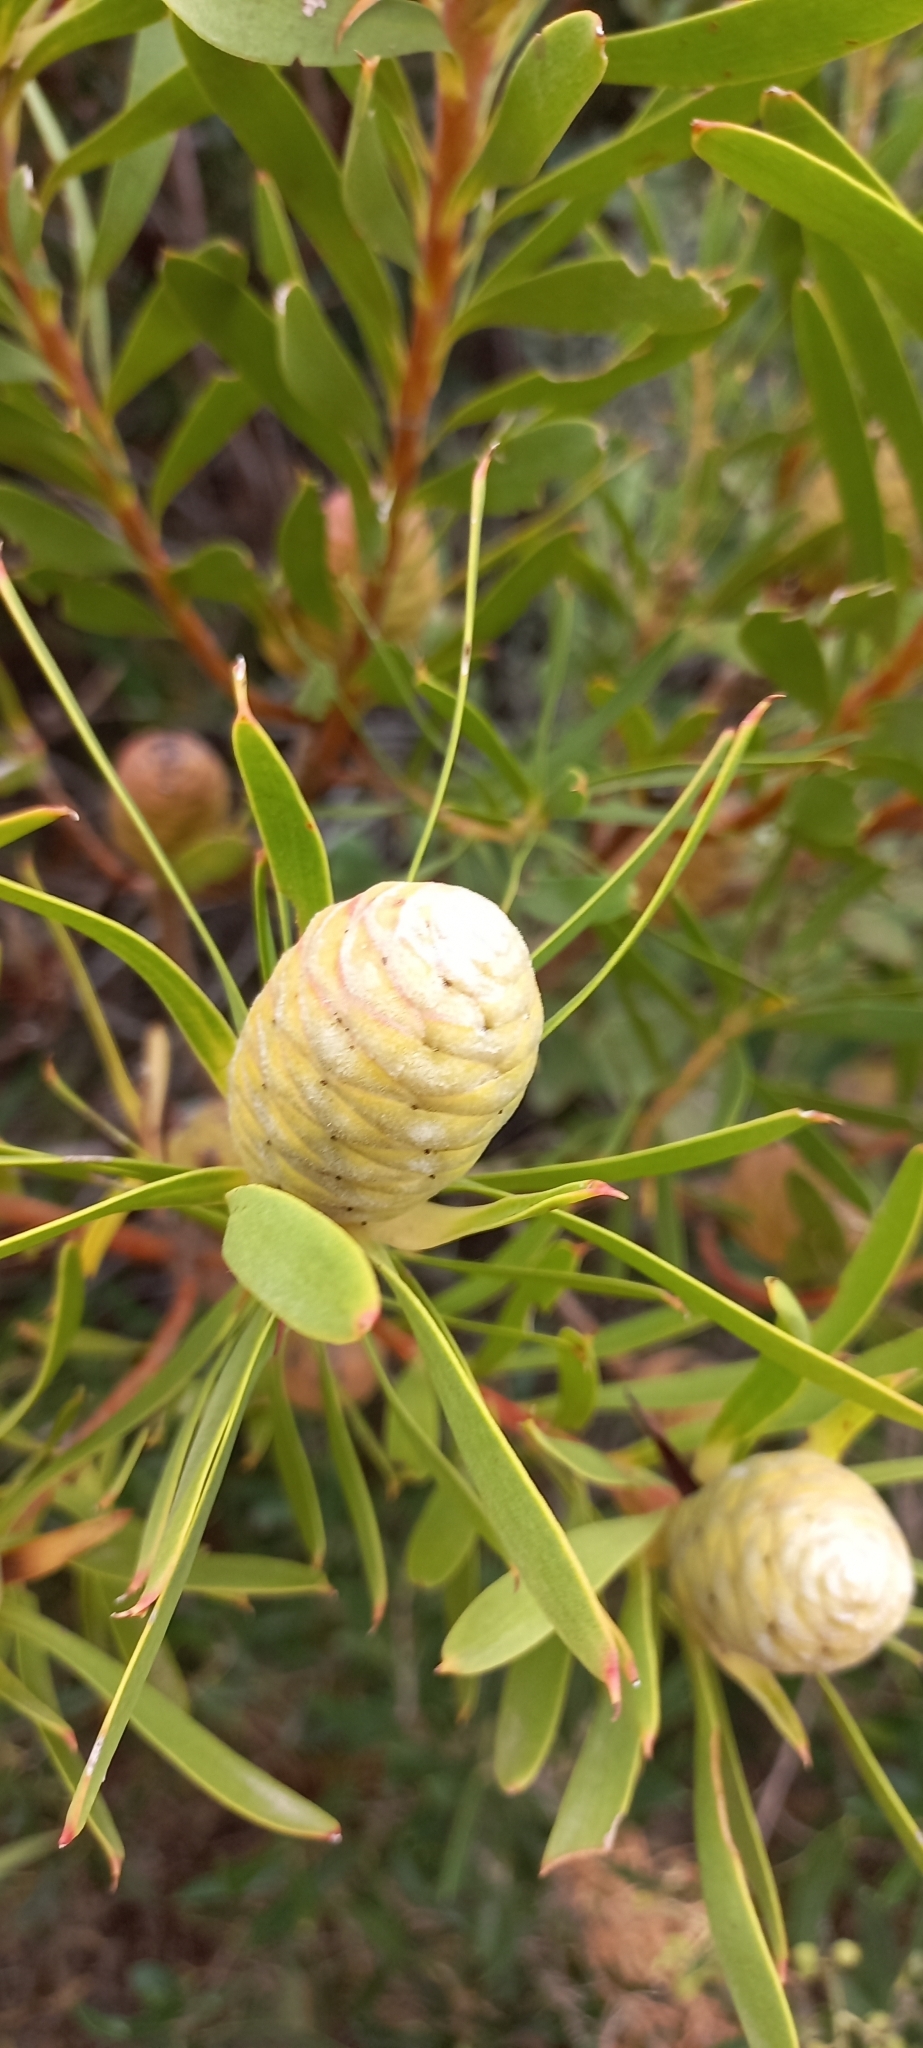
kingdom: Plantae
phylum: Tracheophyta
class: Magnoliopsida
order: Proteales
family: Proteaceae
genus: Leucadendron
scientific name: Leucadendron coniferum
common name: Dune conebush
